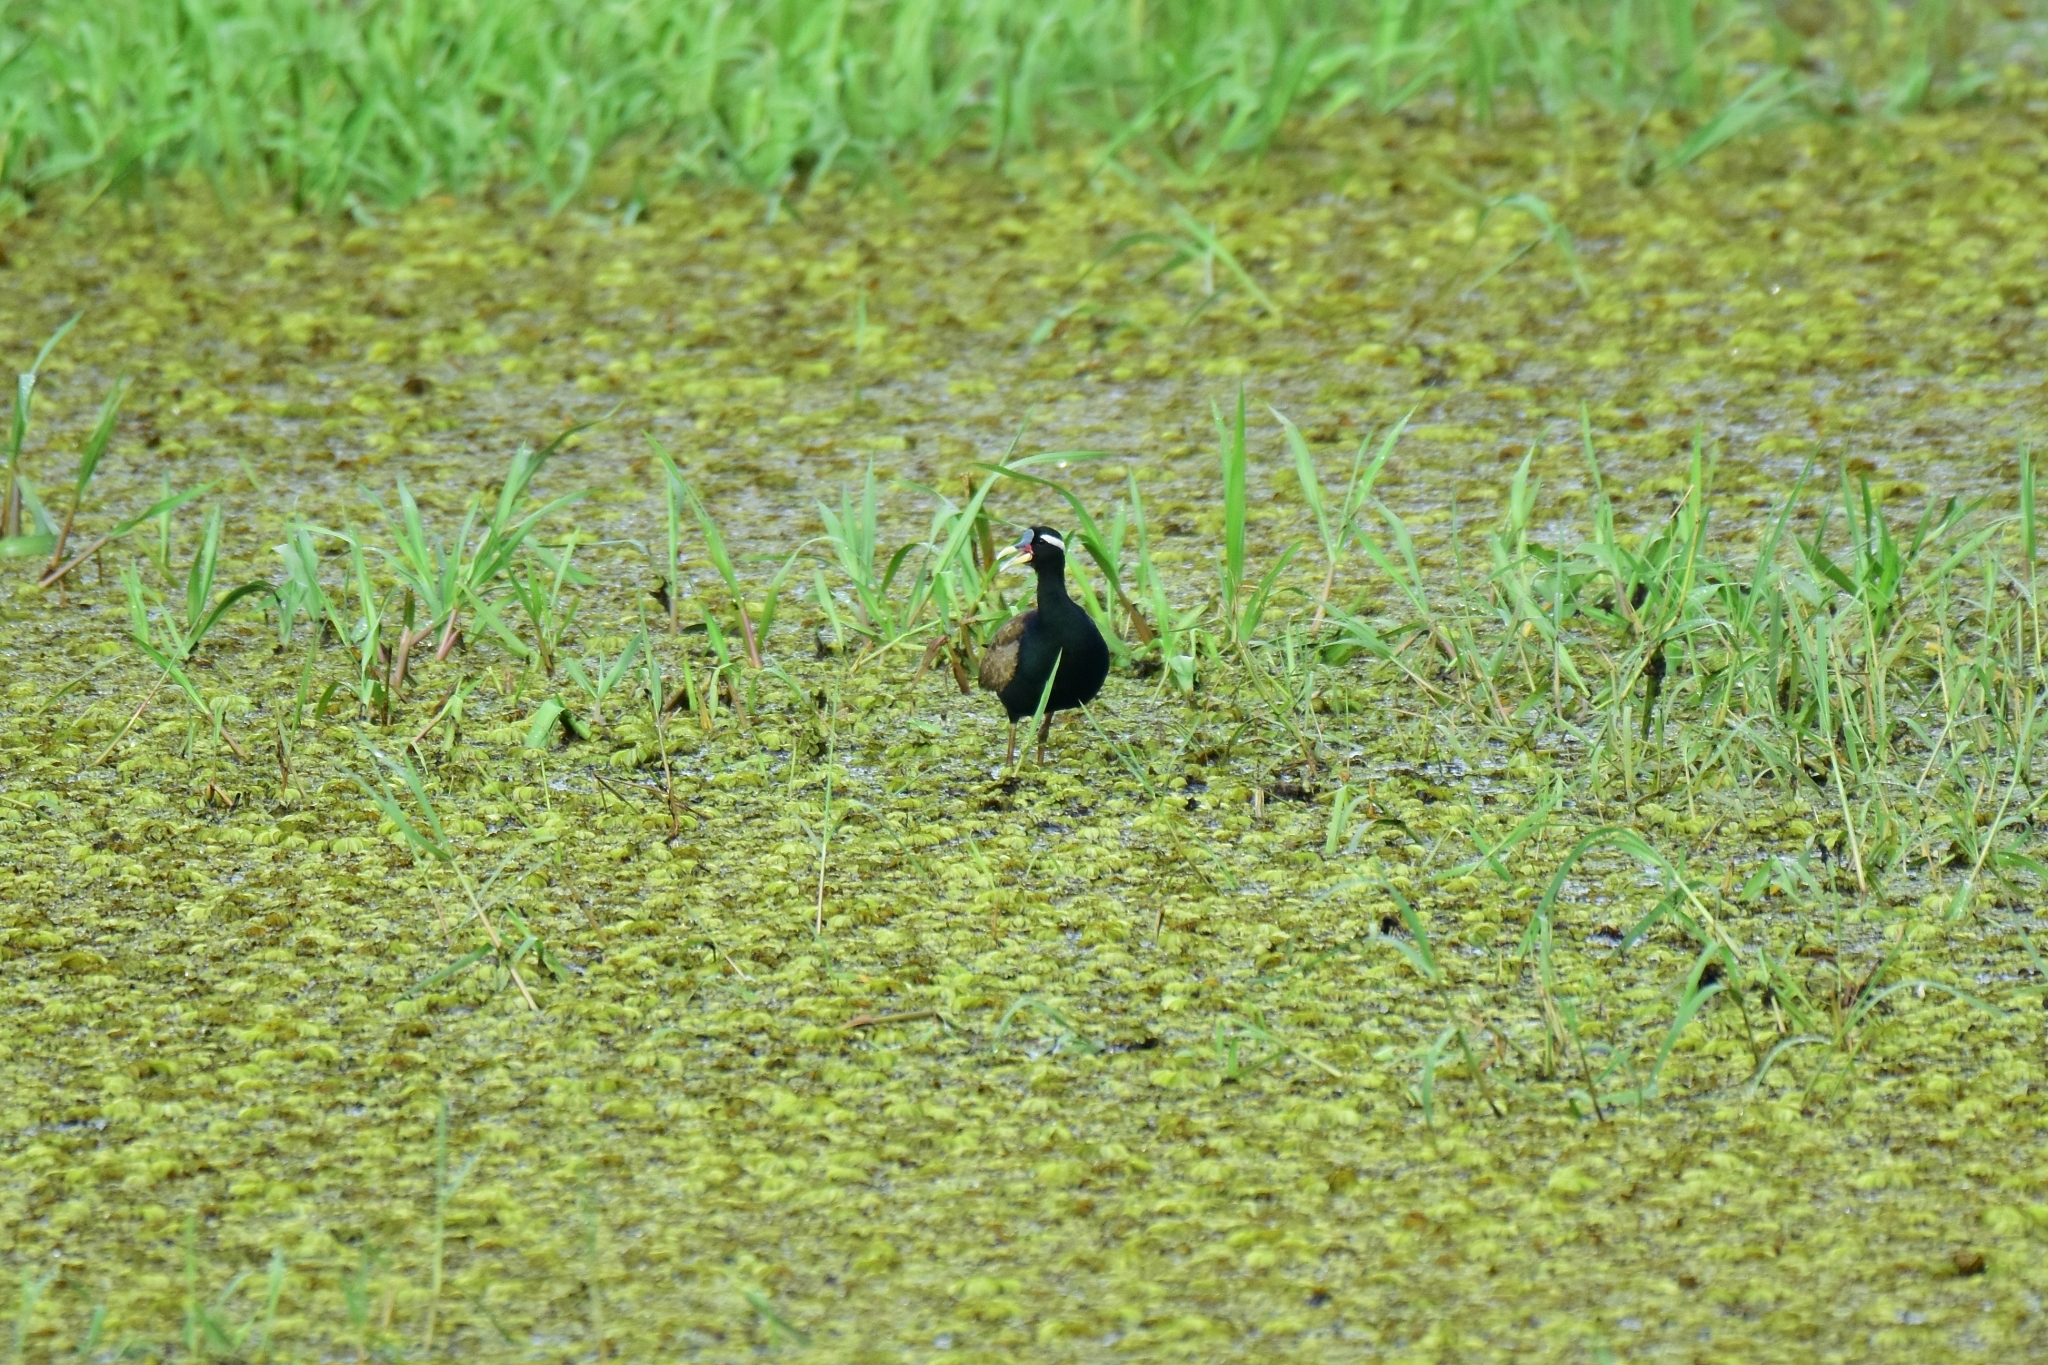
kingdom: Animalia
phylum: Chordata
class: Aves
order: Charadriiformes
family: Jacanidae
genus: Metopidius
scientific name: Metopidius indicus
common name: Bronze-winged jacana
